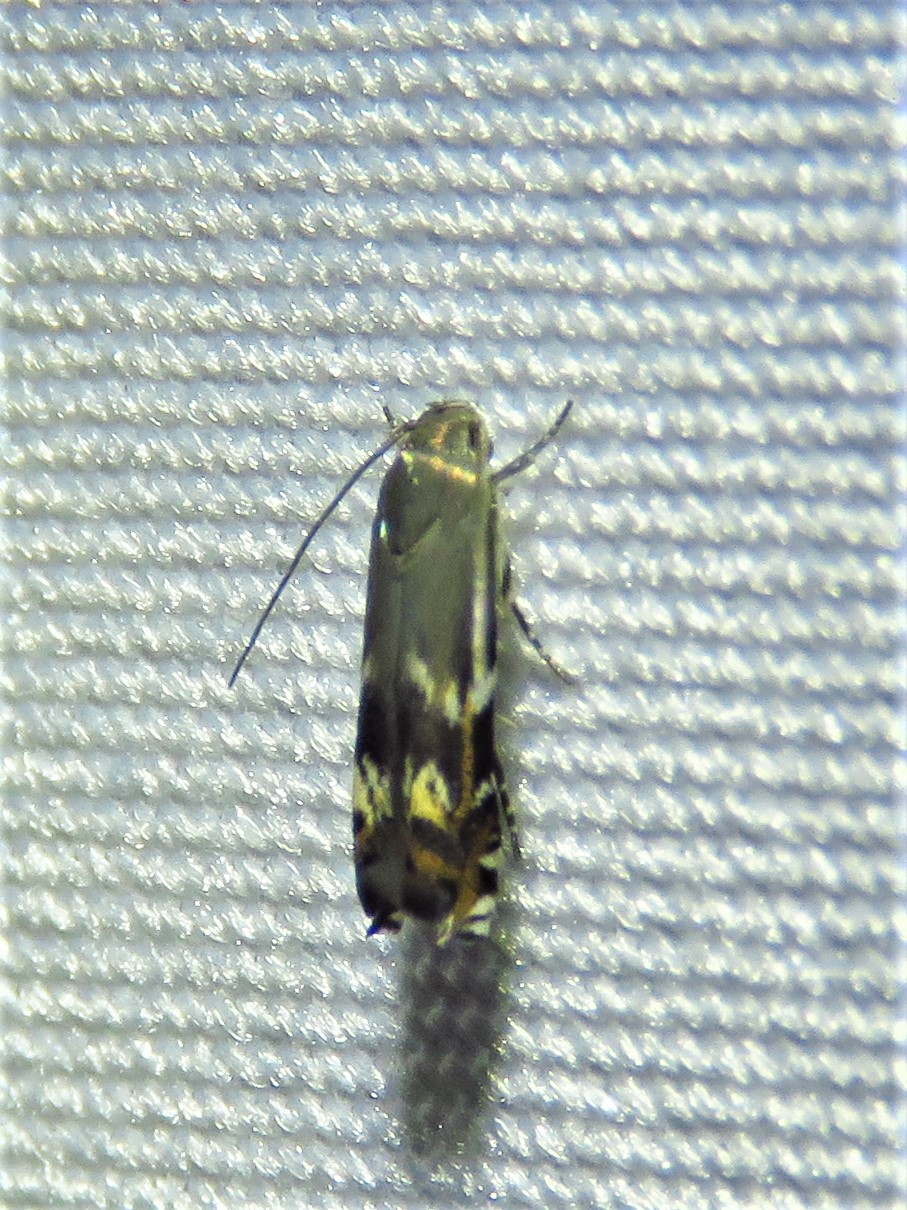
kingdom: Animalia
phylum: Arthropoda
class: Insecta
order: Lepidoptera
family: Gelechiidae
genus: Calliprora
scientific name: Calliprora sexstrigella
